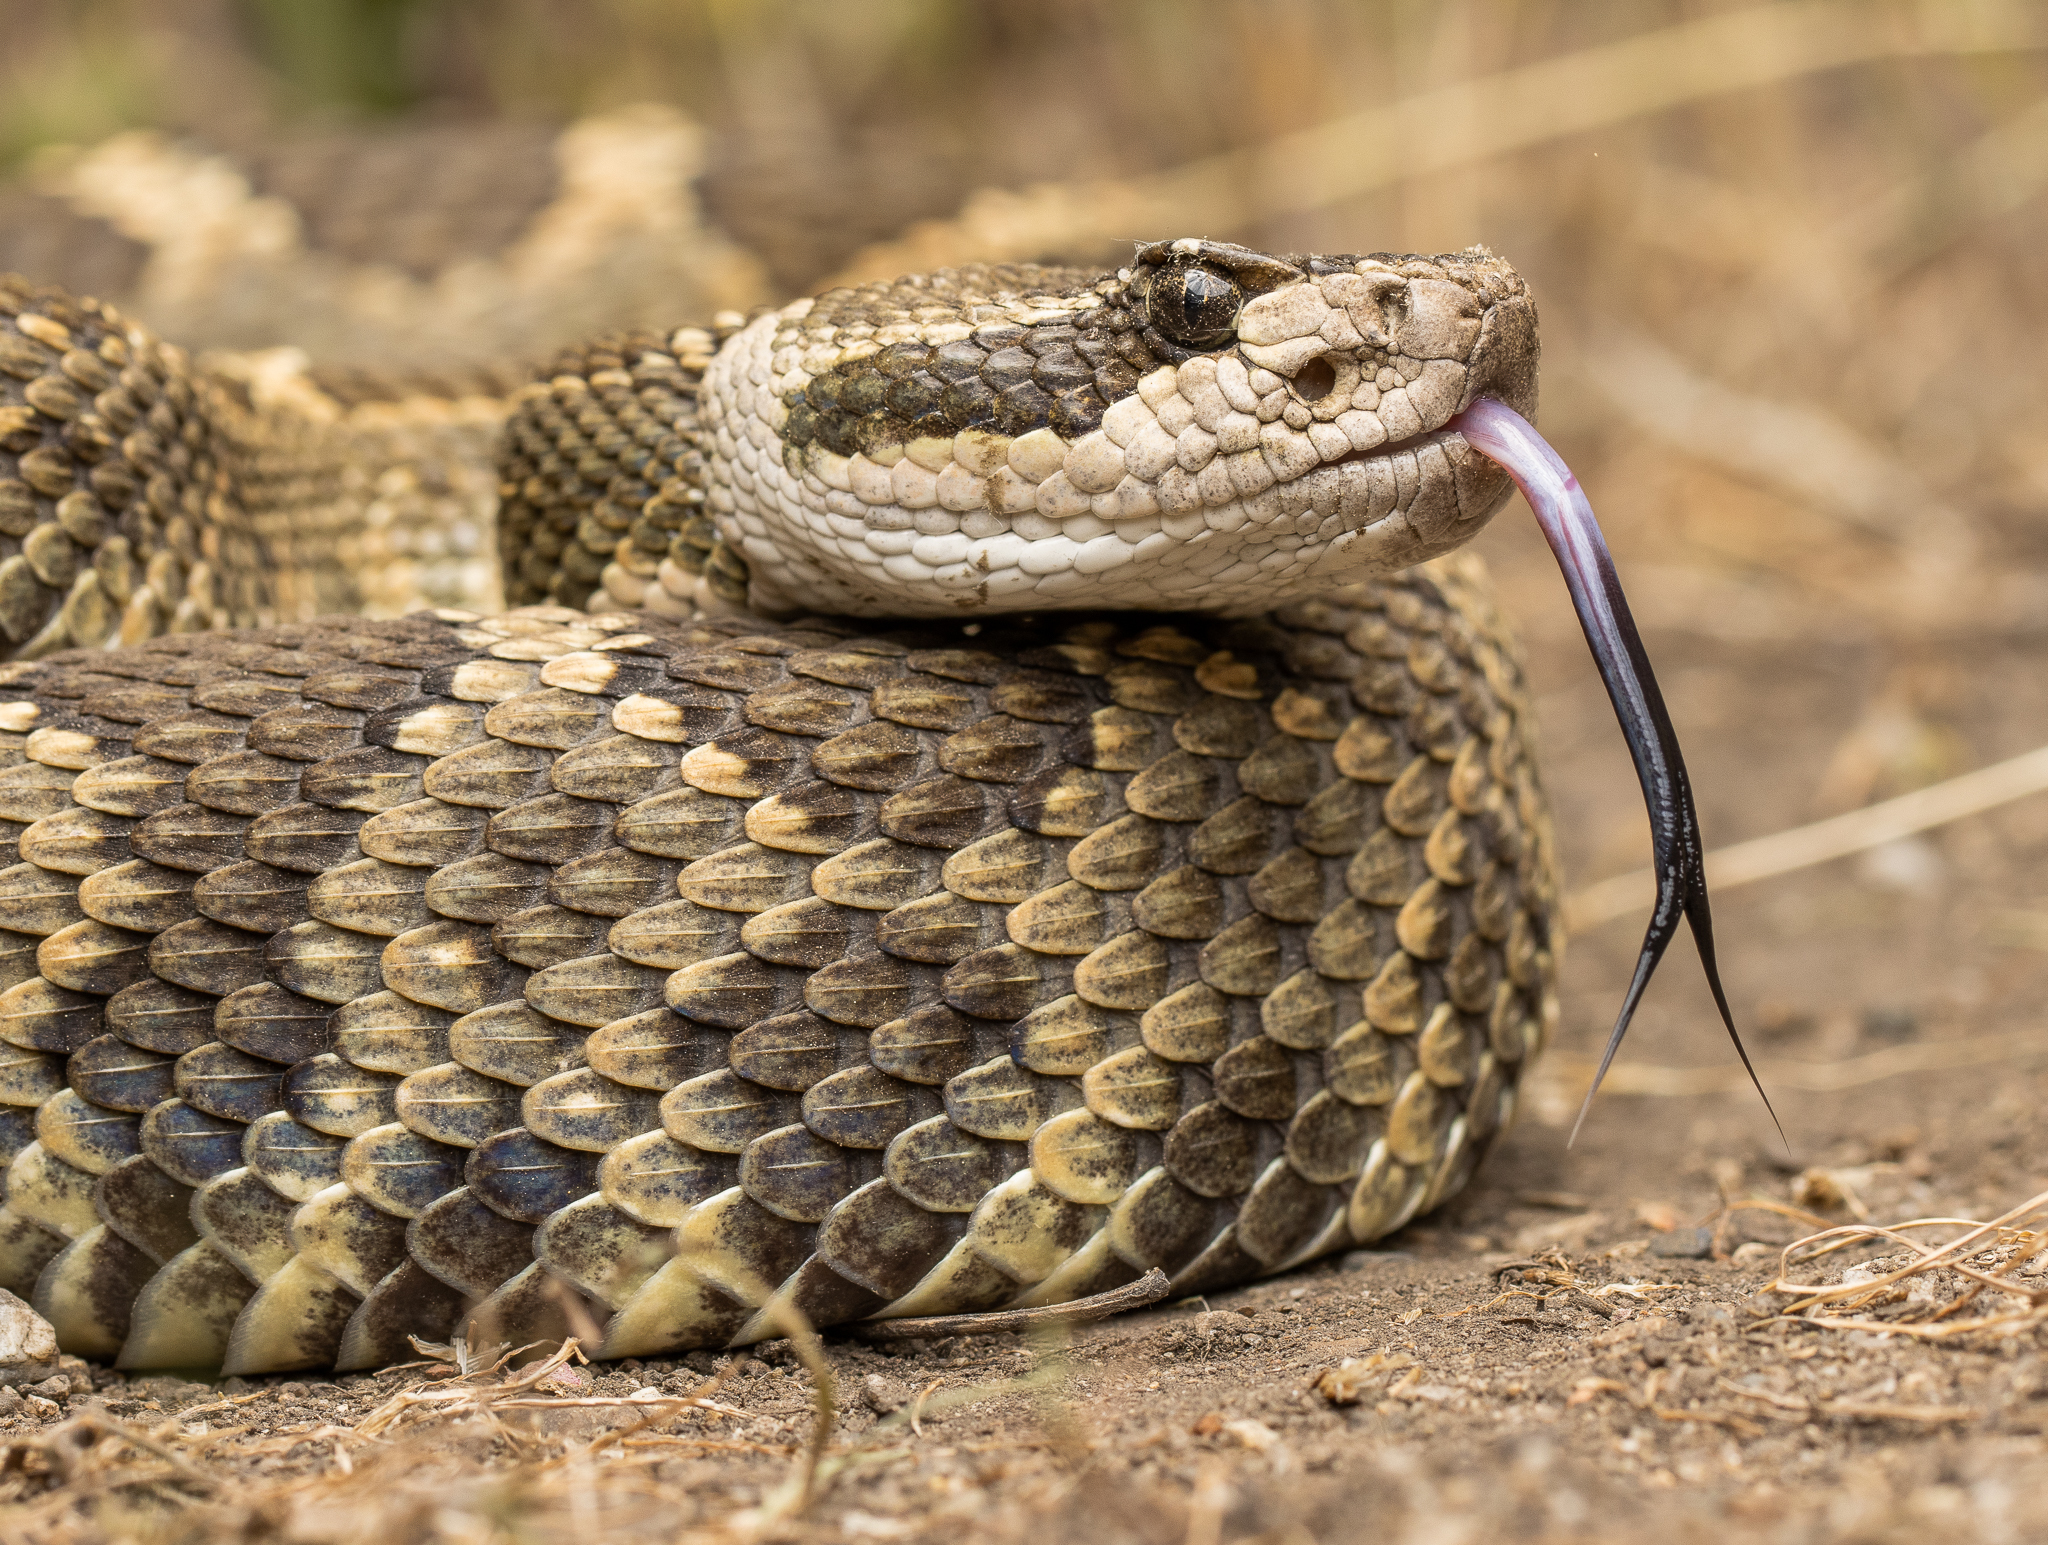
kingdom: Animalia
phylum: Chordata
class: Squamata
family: Viperidae
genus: Crotalus
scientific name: Crotalus oreganus
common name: Abyssus
